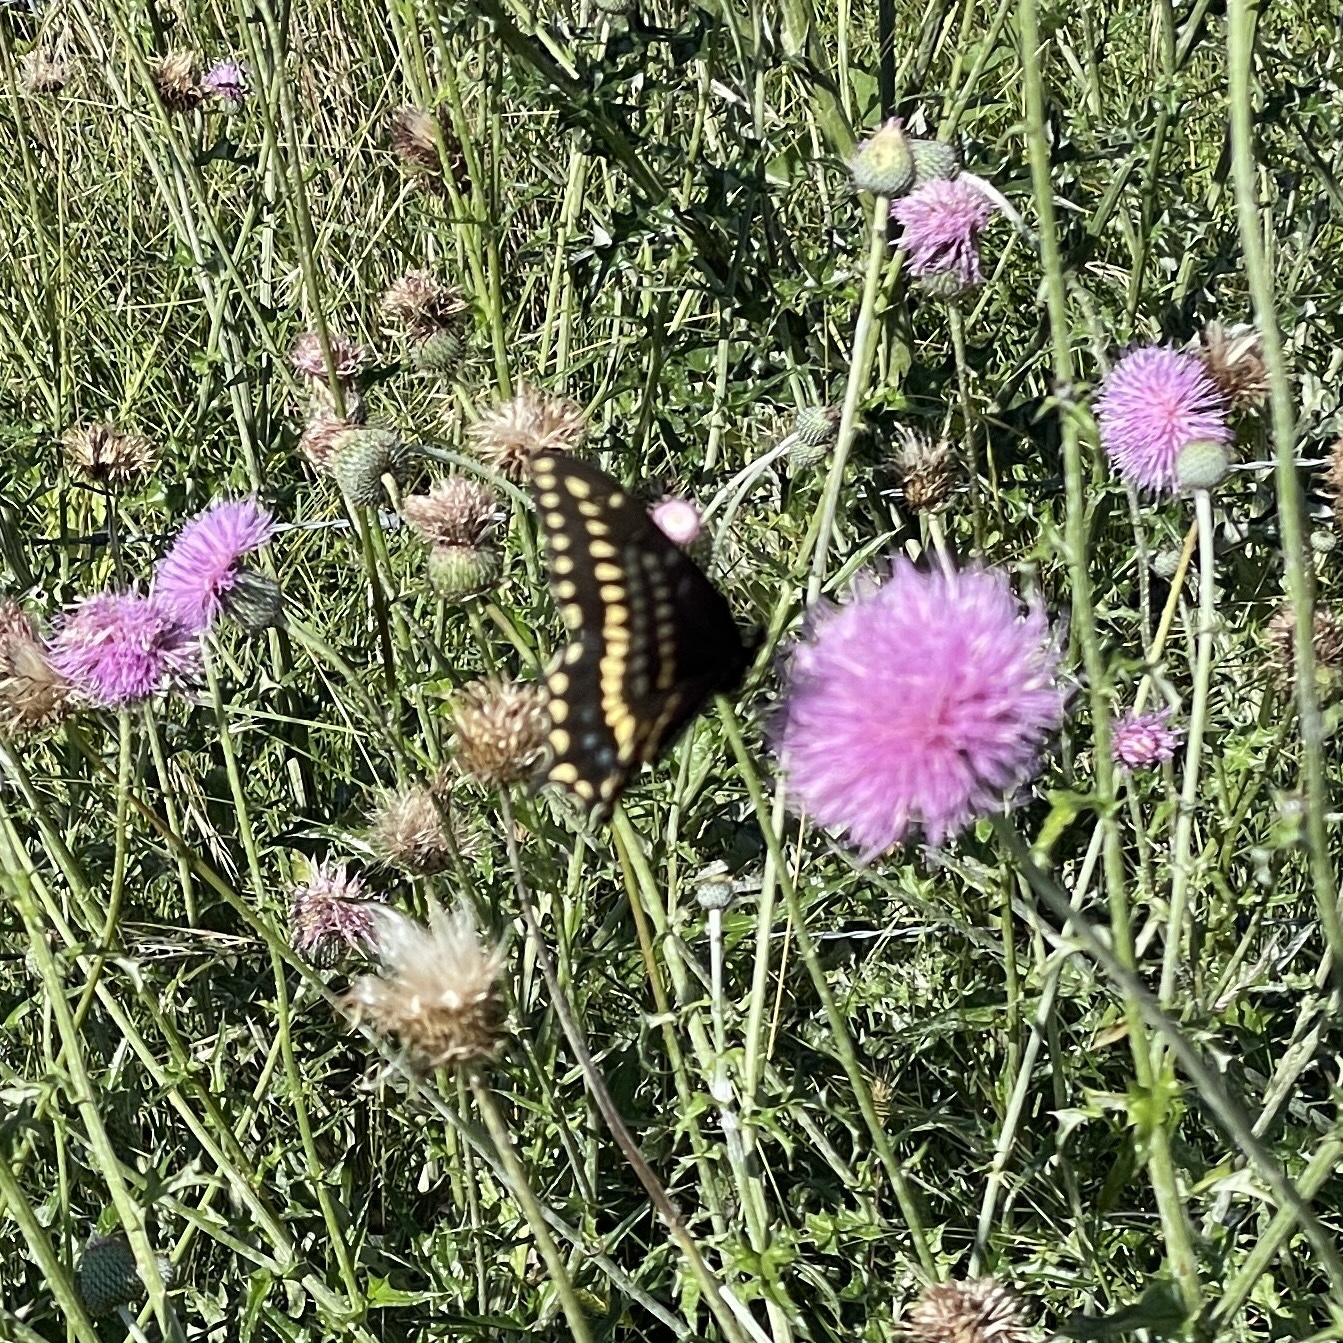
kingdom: Animalia
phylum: Arthropoda
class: Insecta
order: Lepidoptera
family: Papilionidae
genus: Papilio
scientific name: Papilio polyxenes
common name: Black swallowtail
